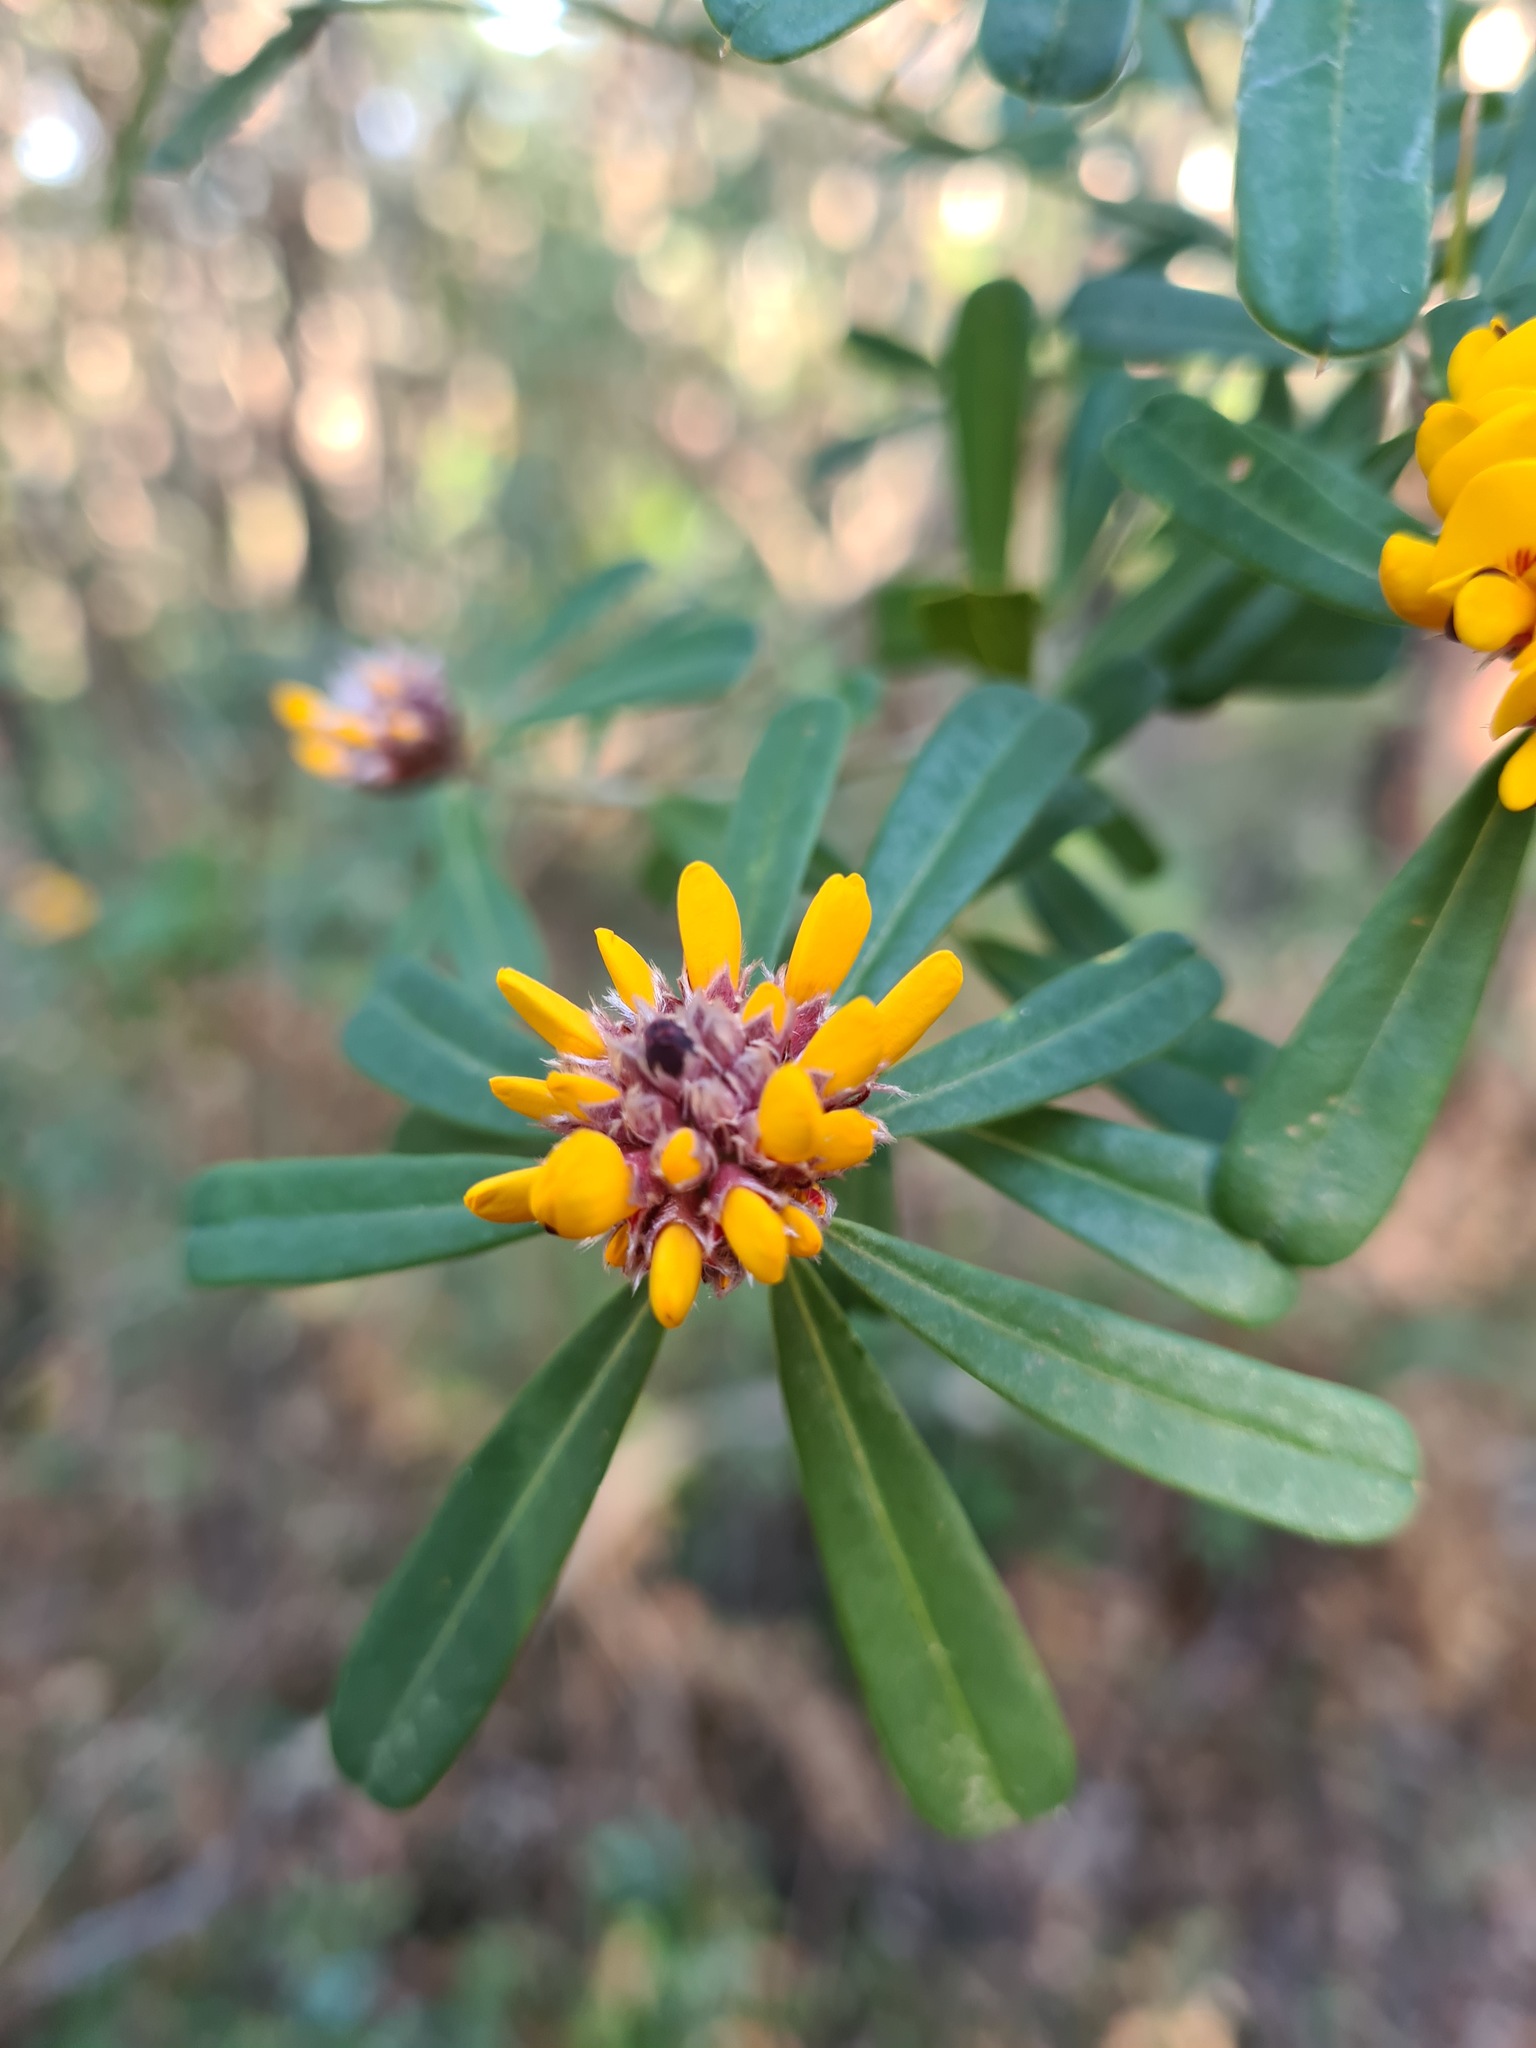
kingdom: Plantae
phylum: Tracheophyta
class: Magnoliopsida
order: Fabales
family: Fabaceae
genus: Pultenaea
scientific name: Pultenaea daphnoides
